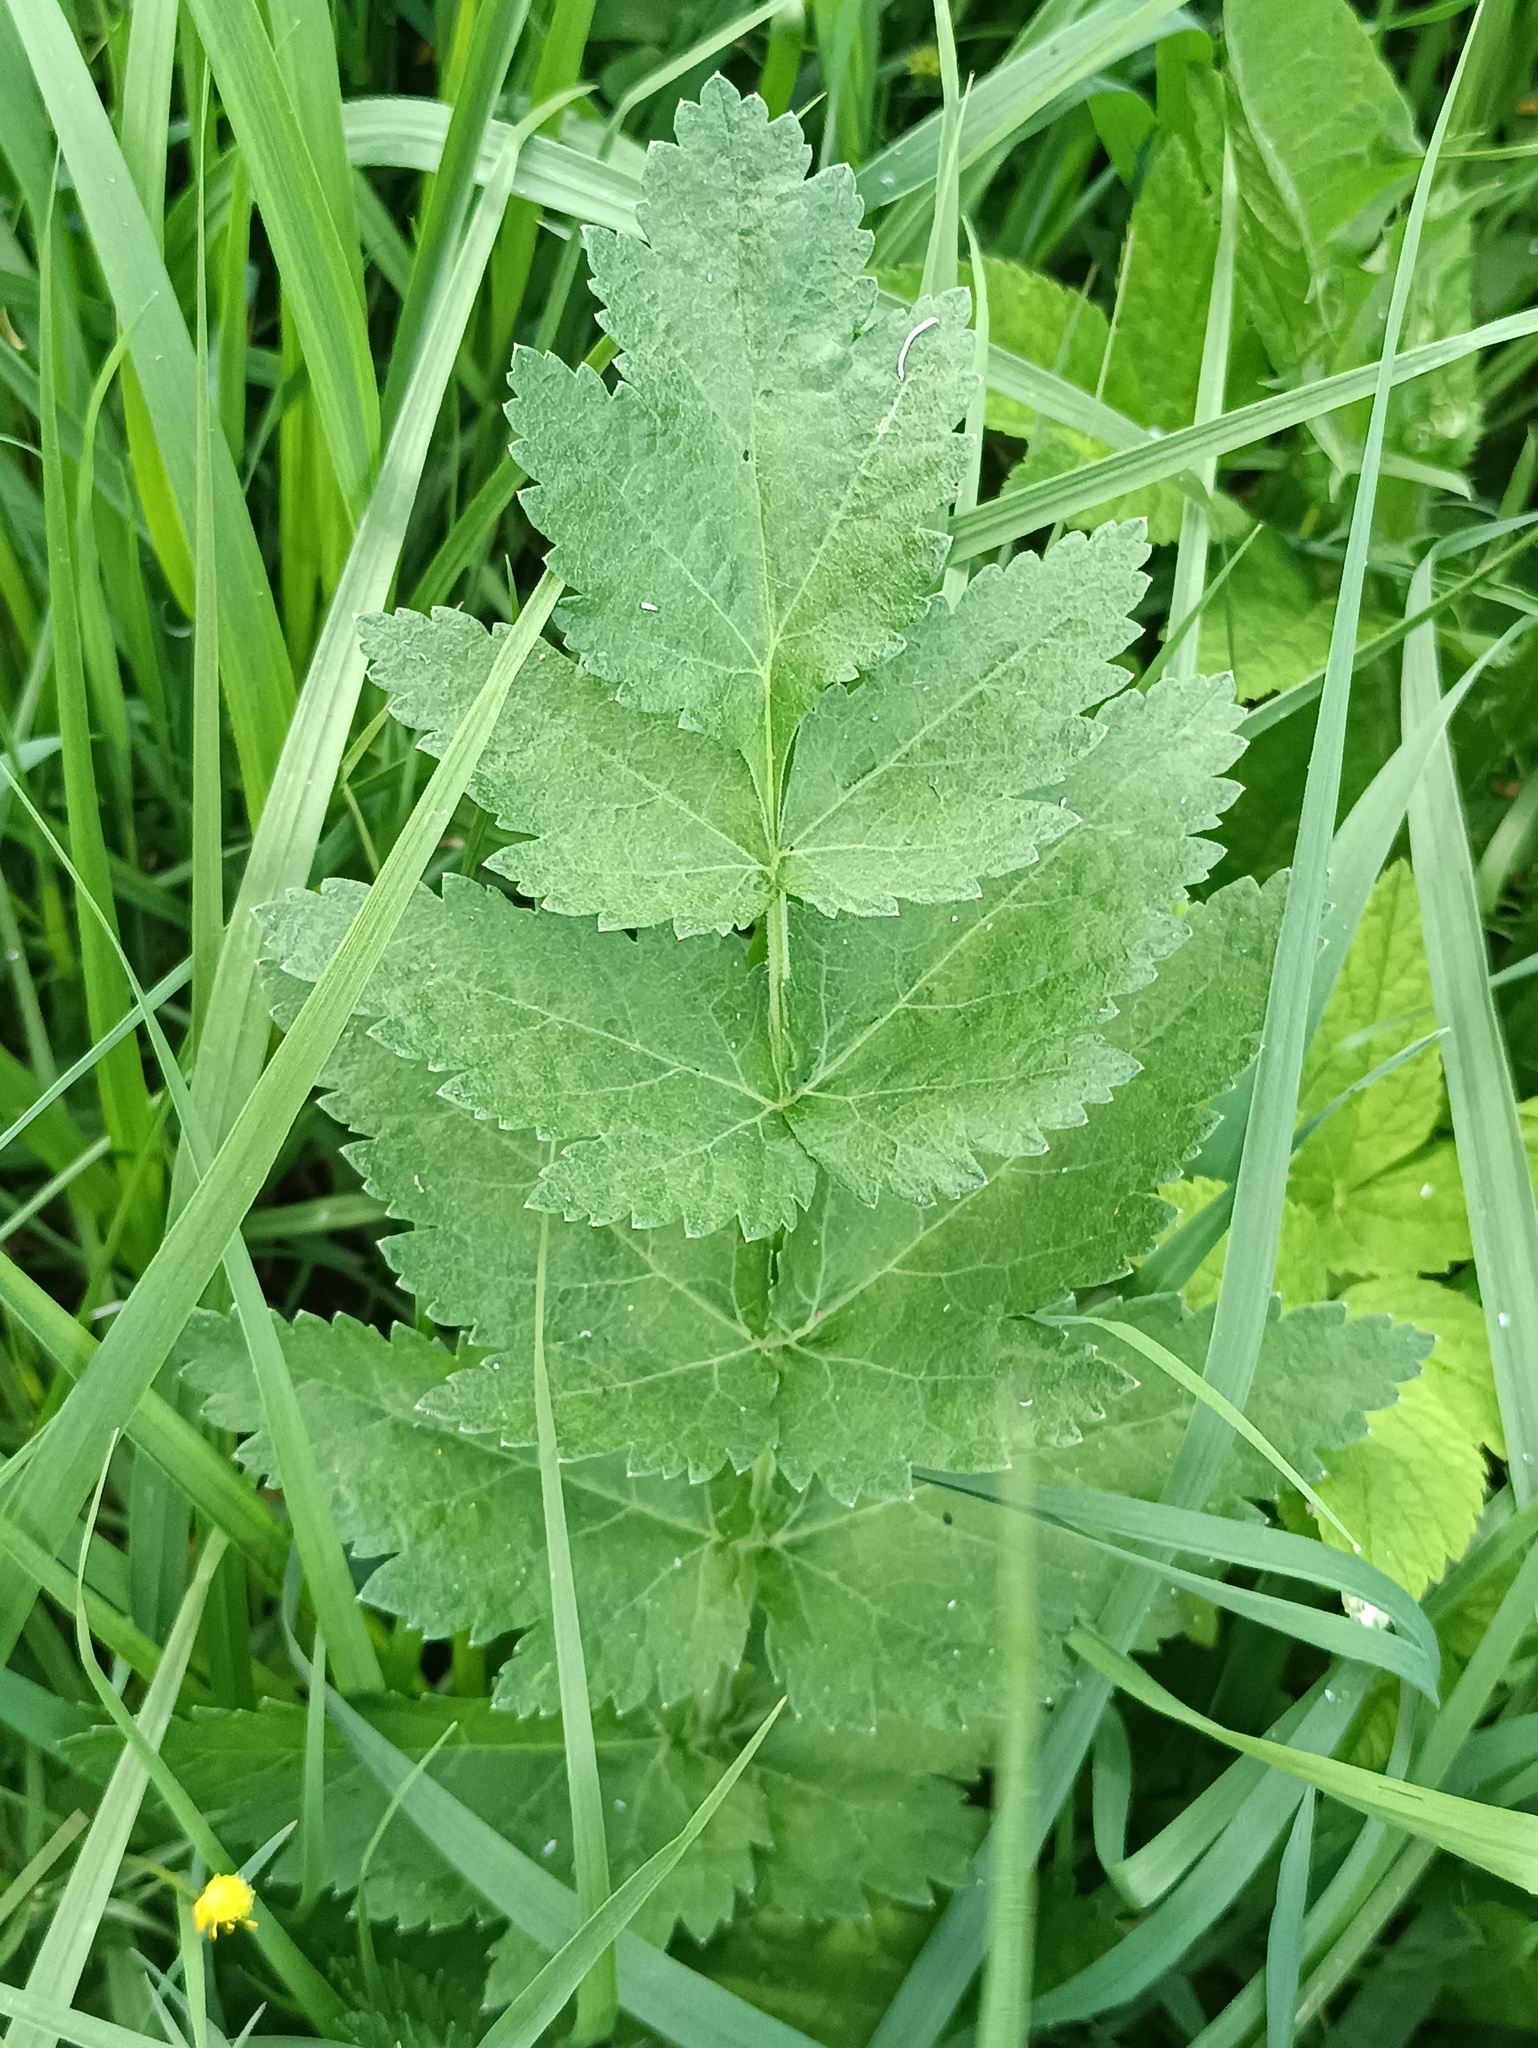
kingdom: Plantae
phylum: Tracheophyta
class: Magnoliopsida
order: Apiales
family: Apiaceae
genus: Pastinaca
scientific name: Pastinaca sativa
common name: Wild parsnip
